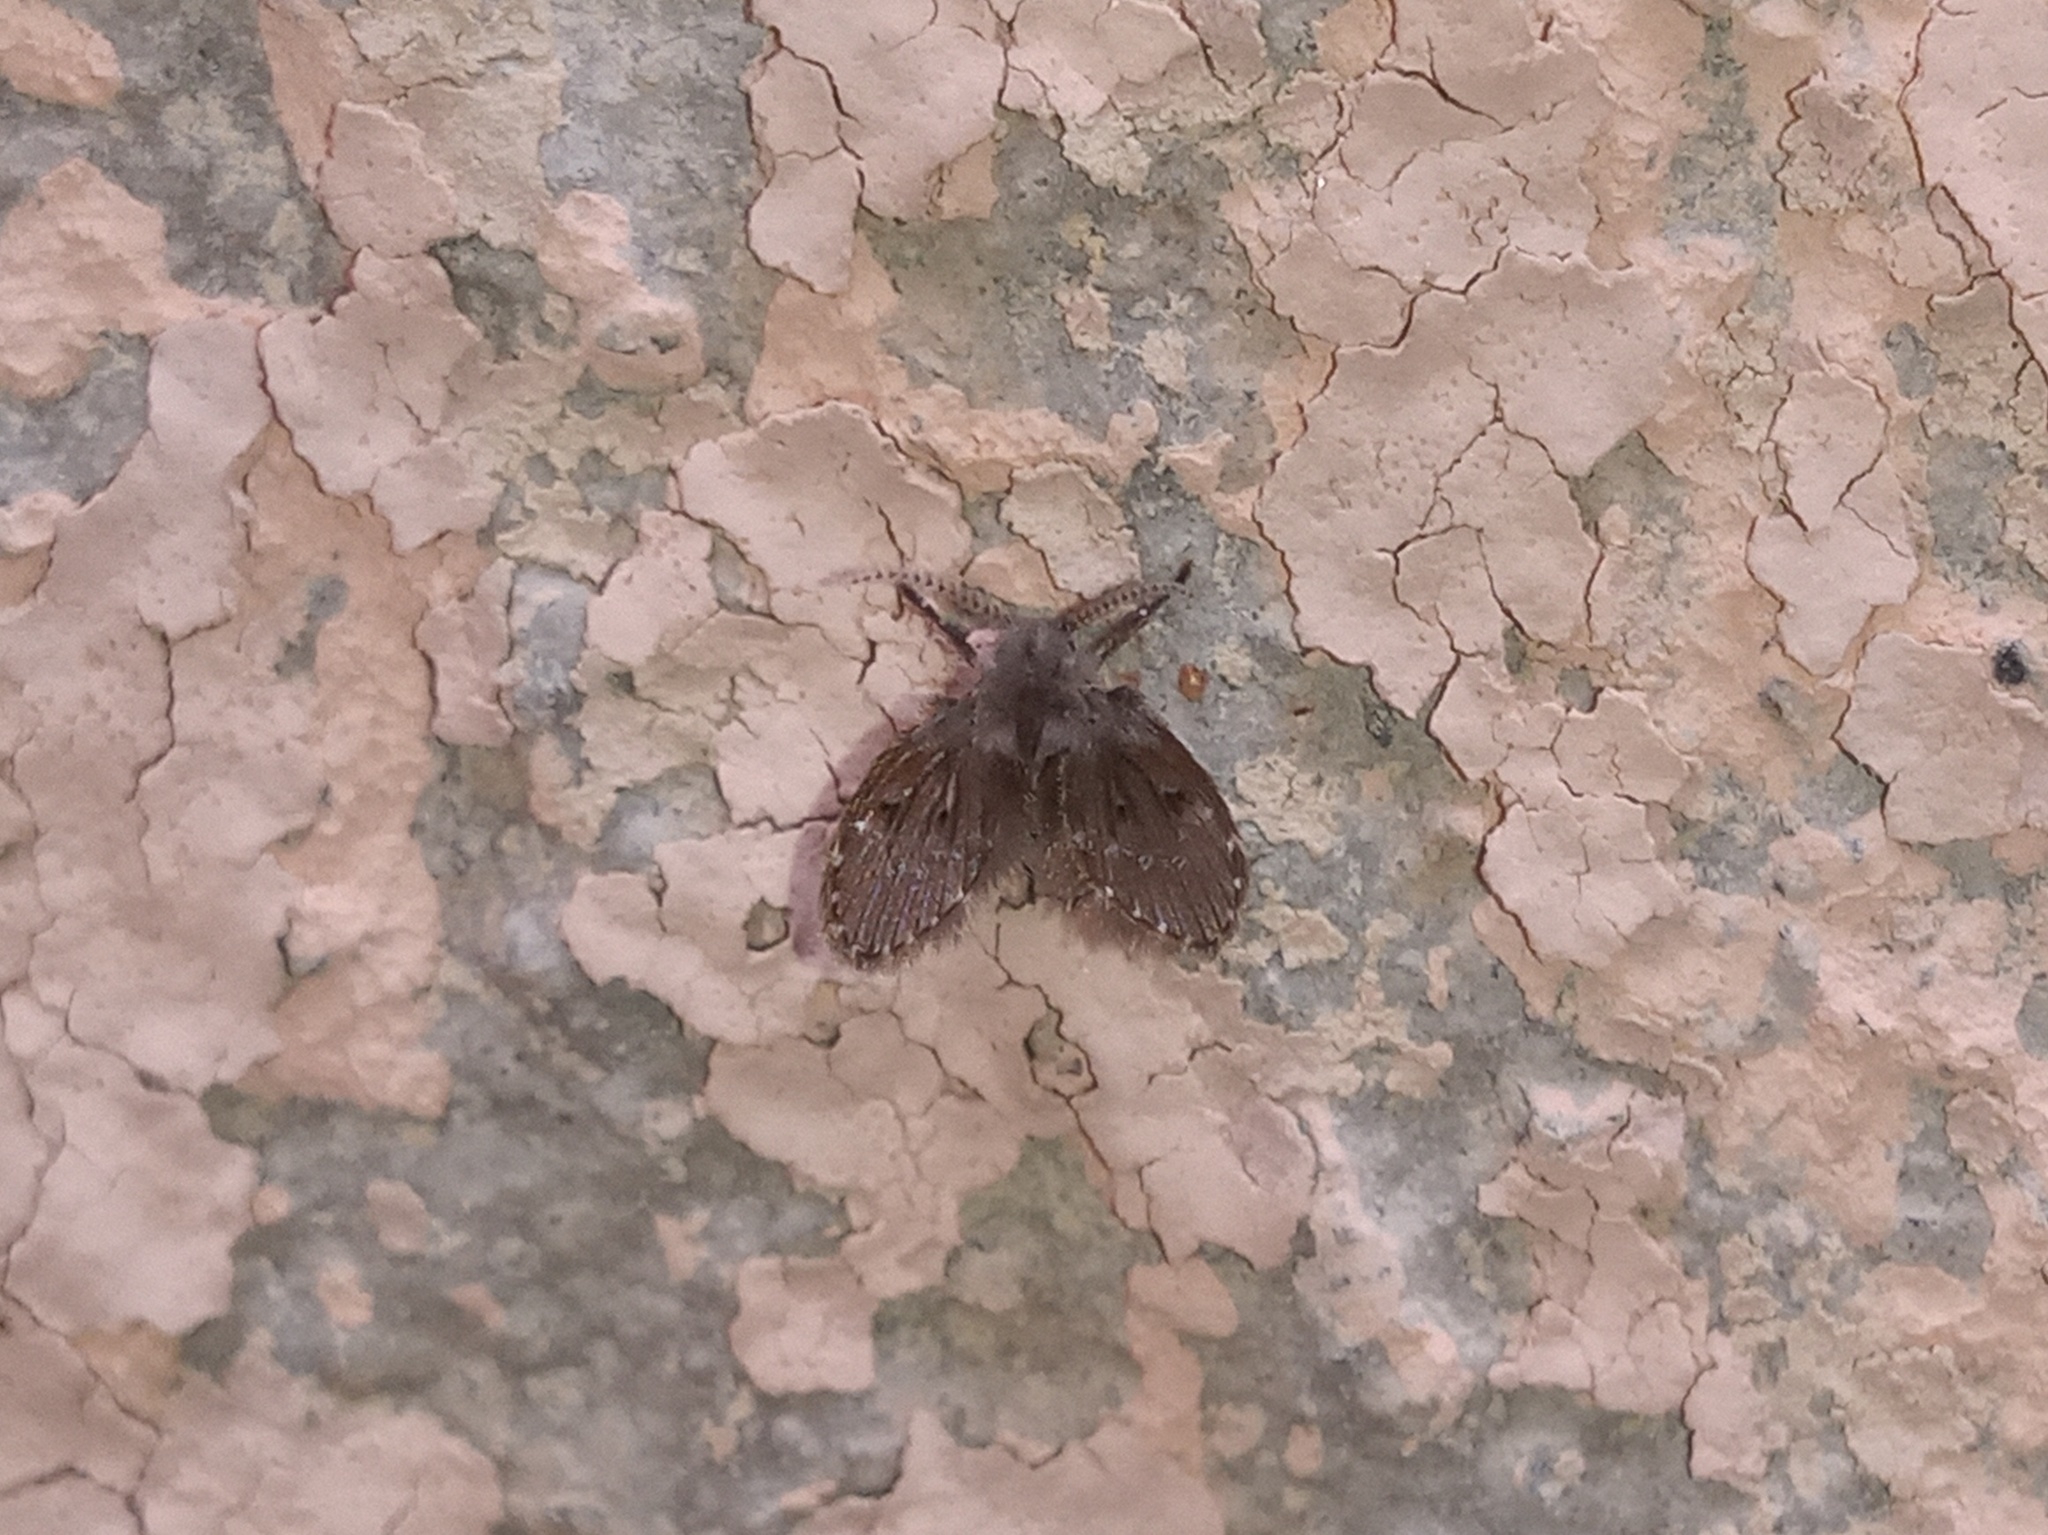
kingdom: Animalia
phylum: Arthropoda
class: Insecta
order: Diptera
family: Psychodidae
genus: Clogmia
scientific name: Clogmia albipunctatus
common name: White-spotted moth fly
